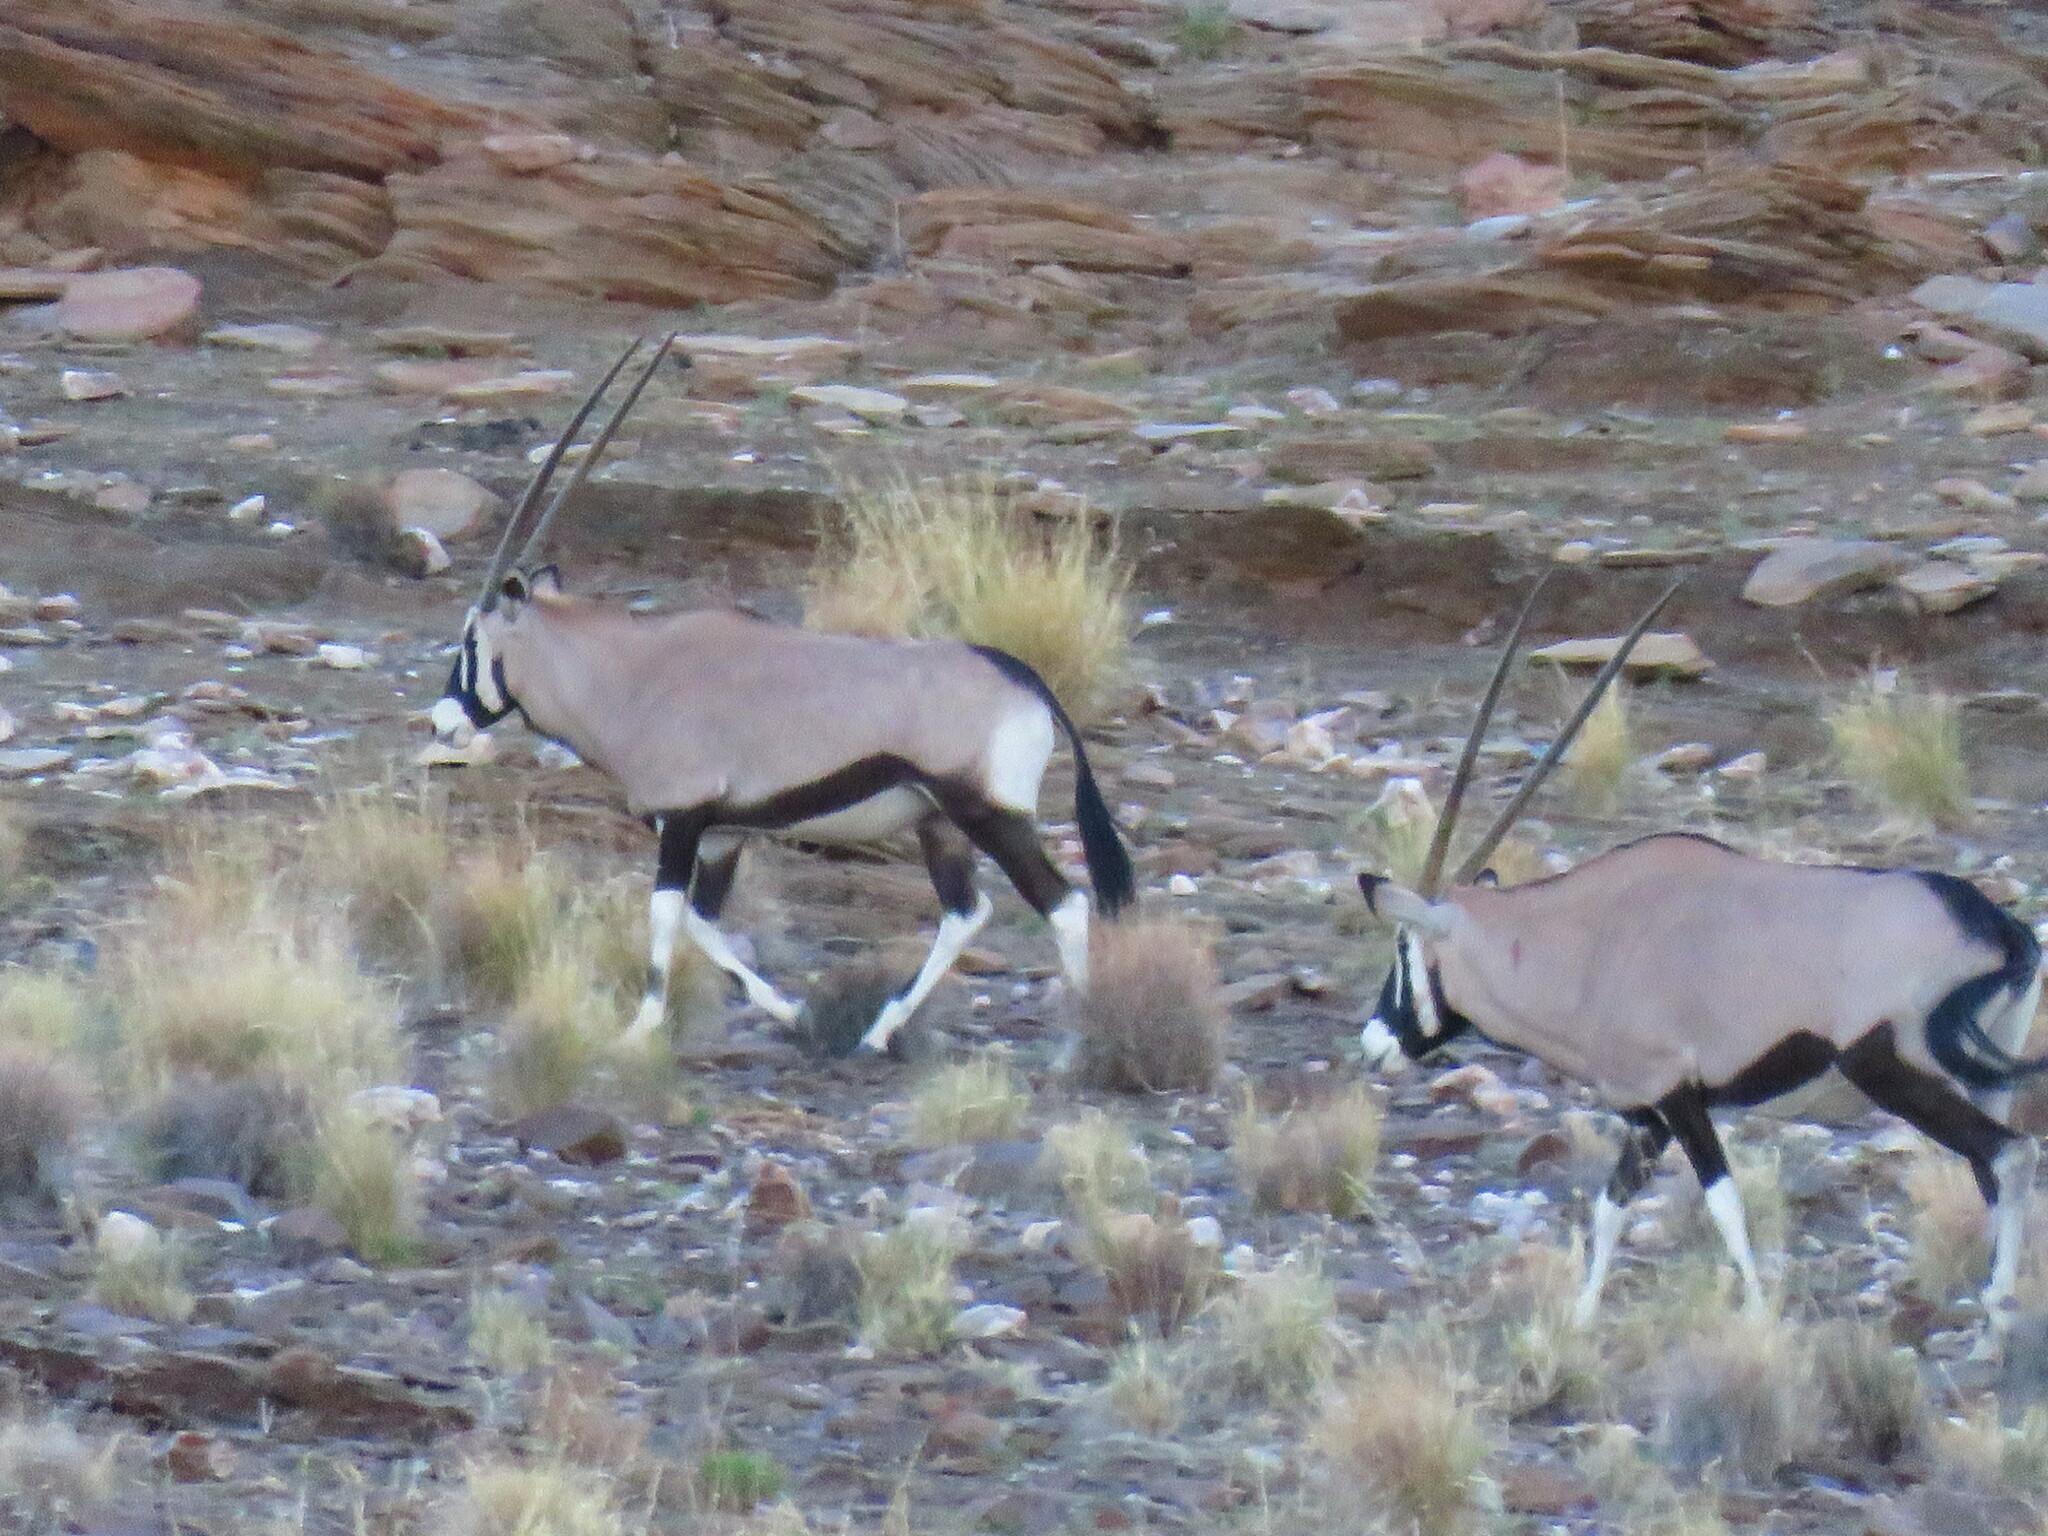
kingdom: Animalia
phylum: Chordata
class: Mammalia
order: Artiodactyla
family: Bovidae
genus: Oryx
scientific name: Oryx gazella
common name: Gemsbok
